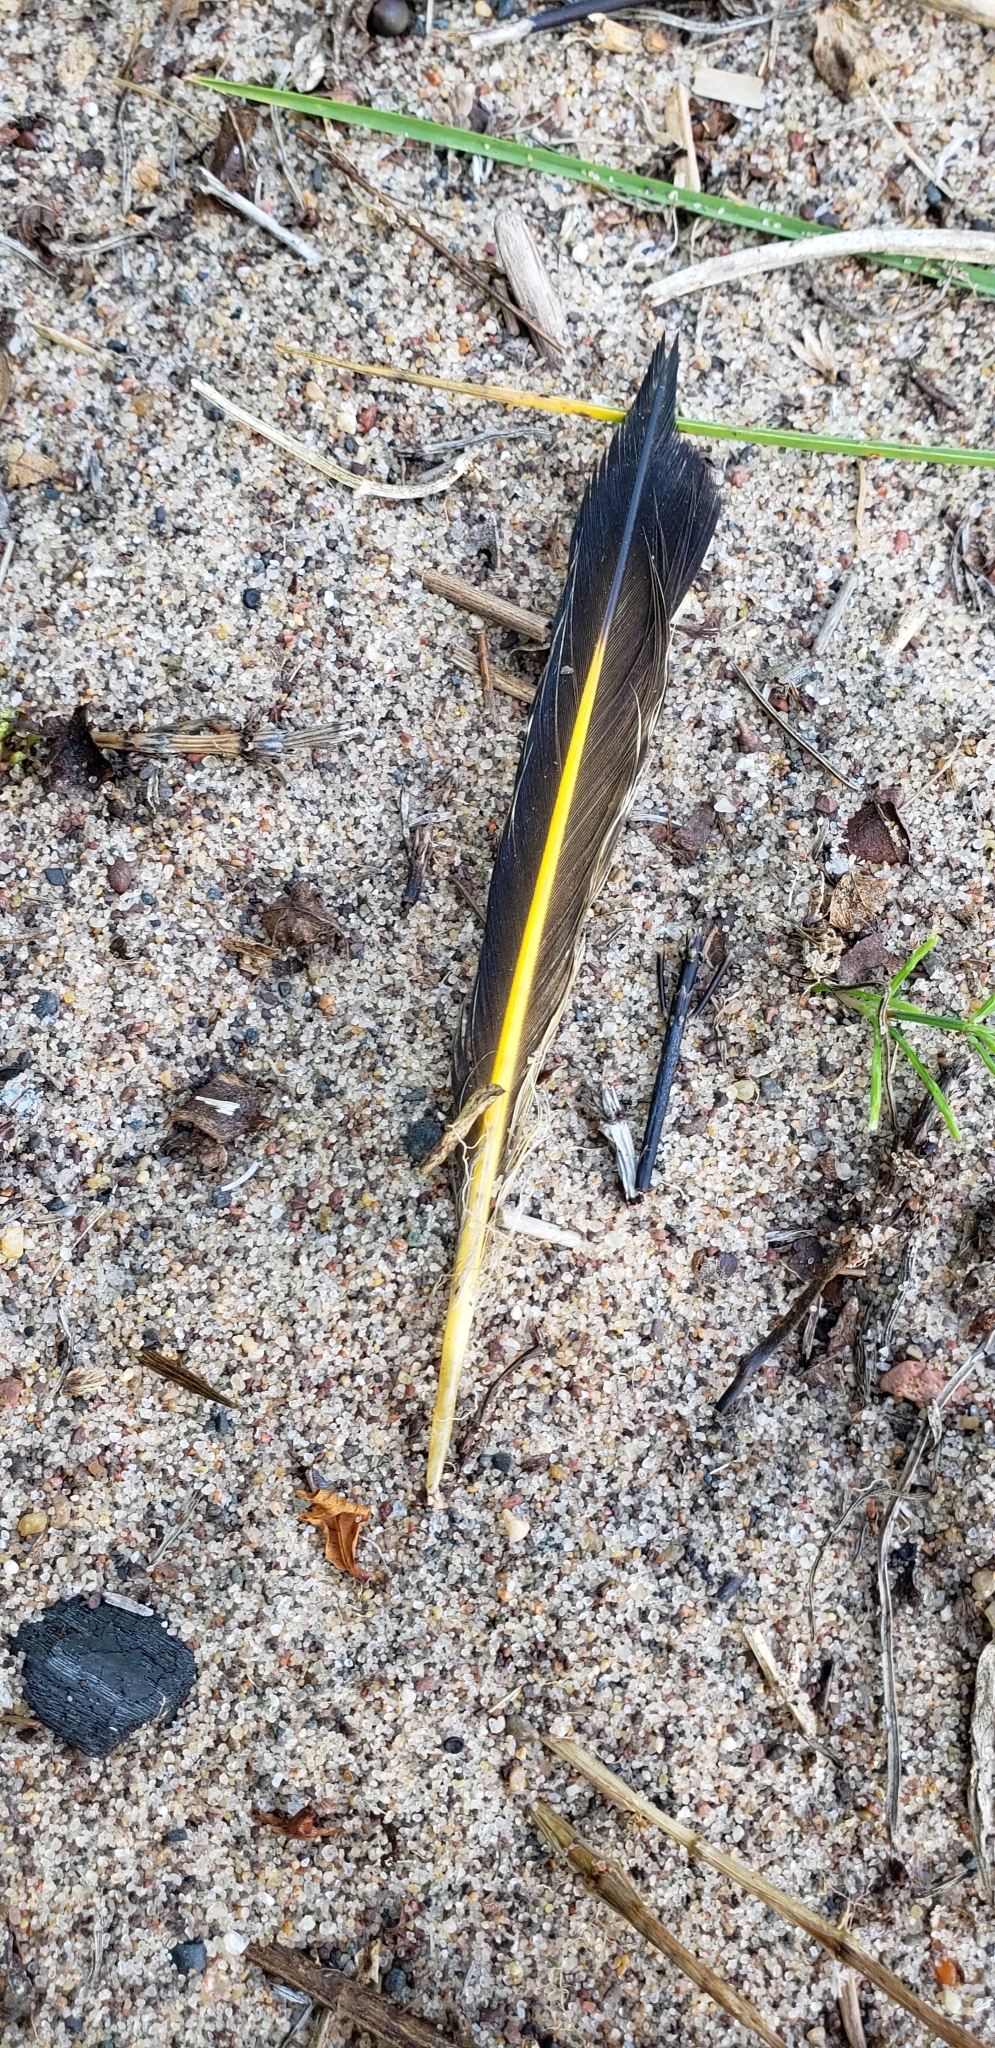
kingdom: Animalia
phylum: Chordata
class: Aves
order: Piciformes
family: Picidae
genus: Colaptes
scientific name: Colaptes auratus
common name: Northern flicker
